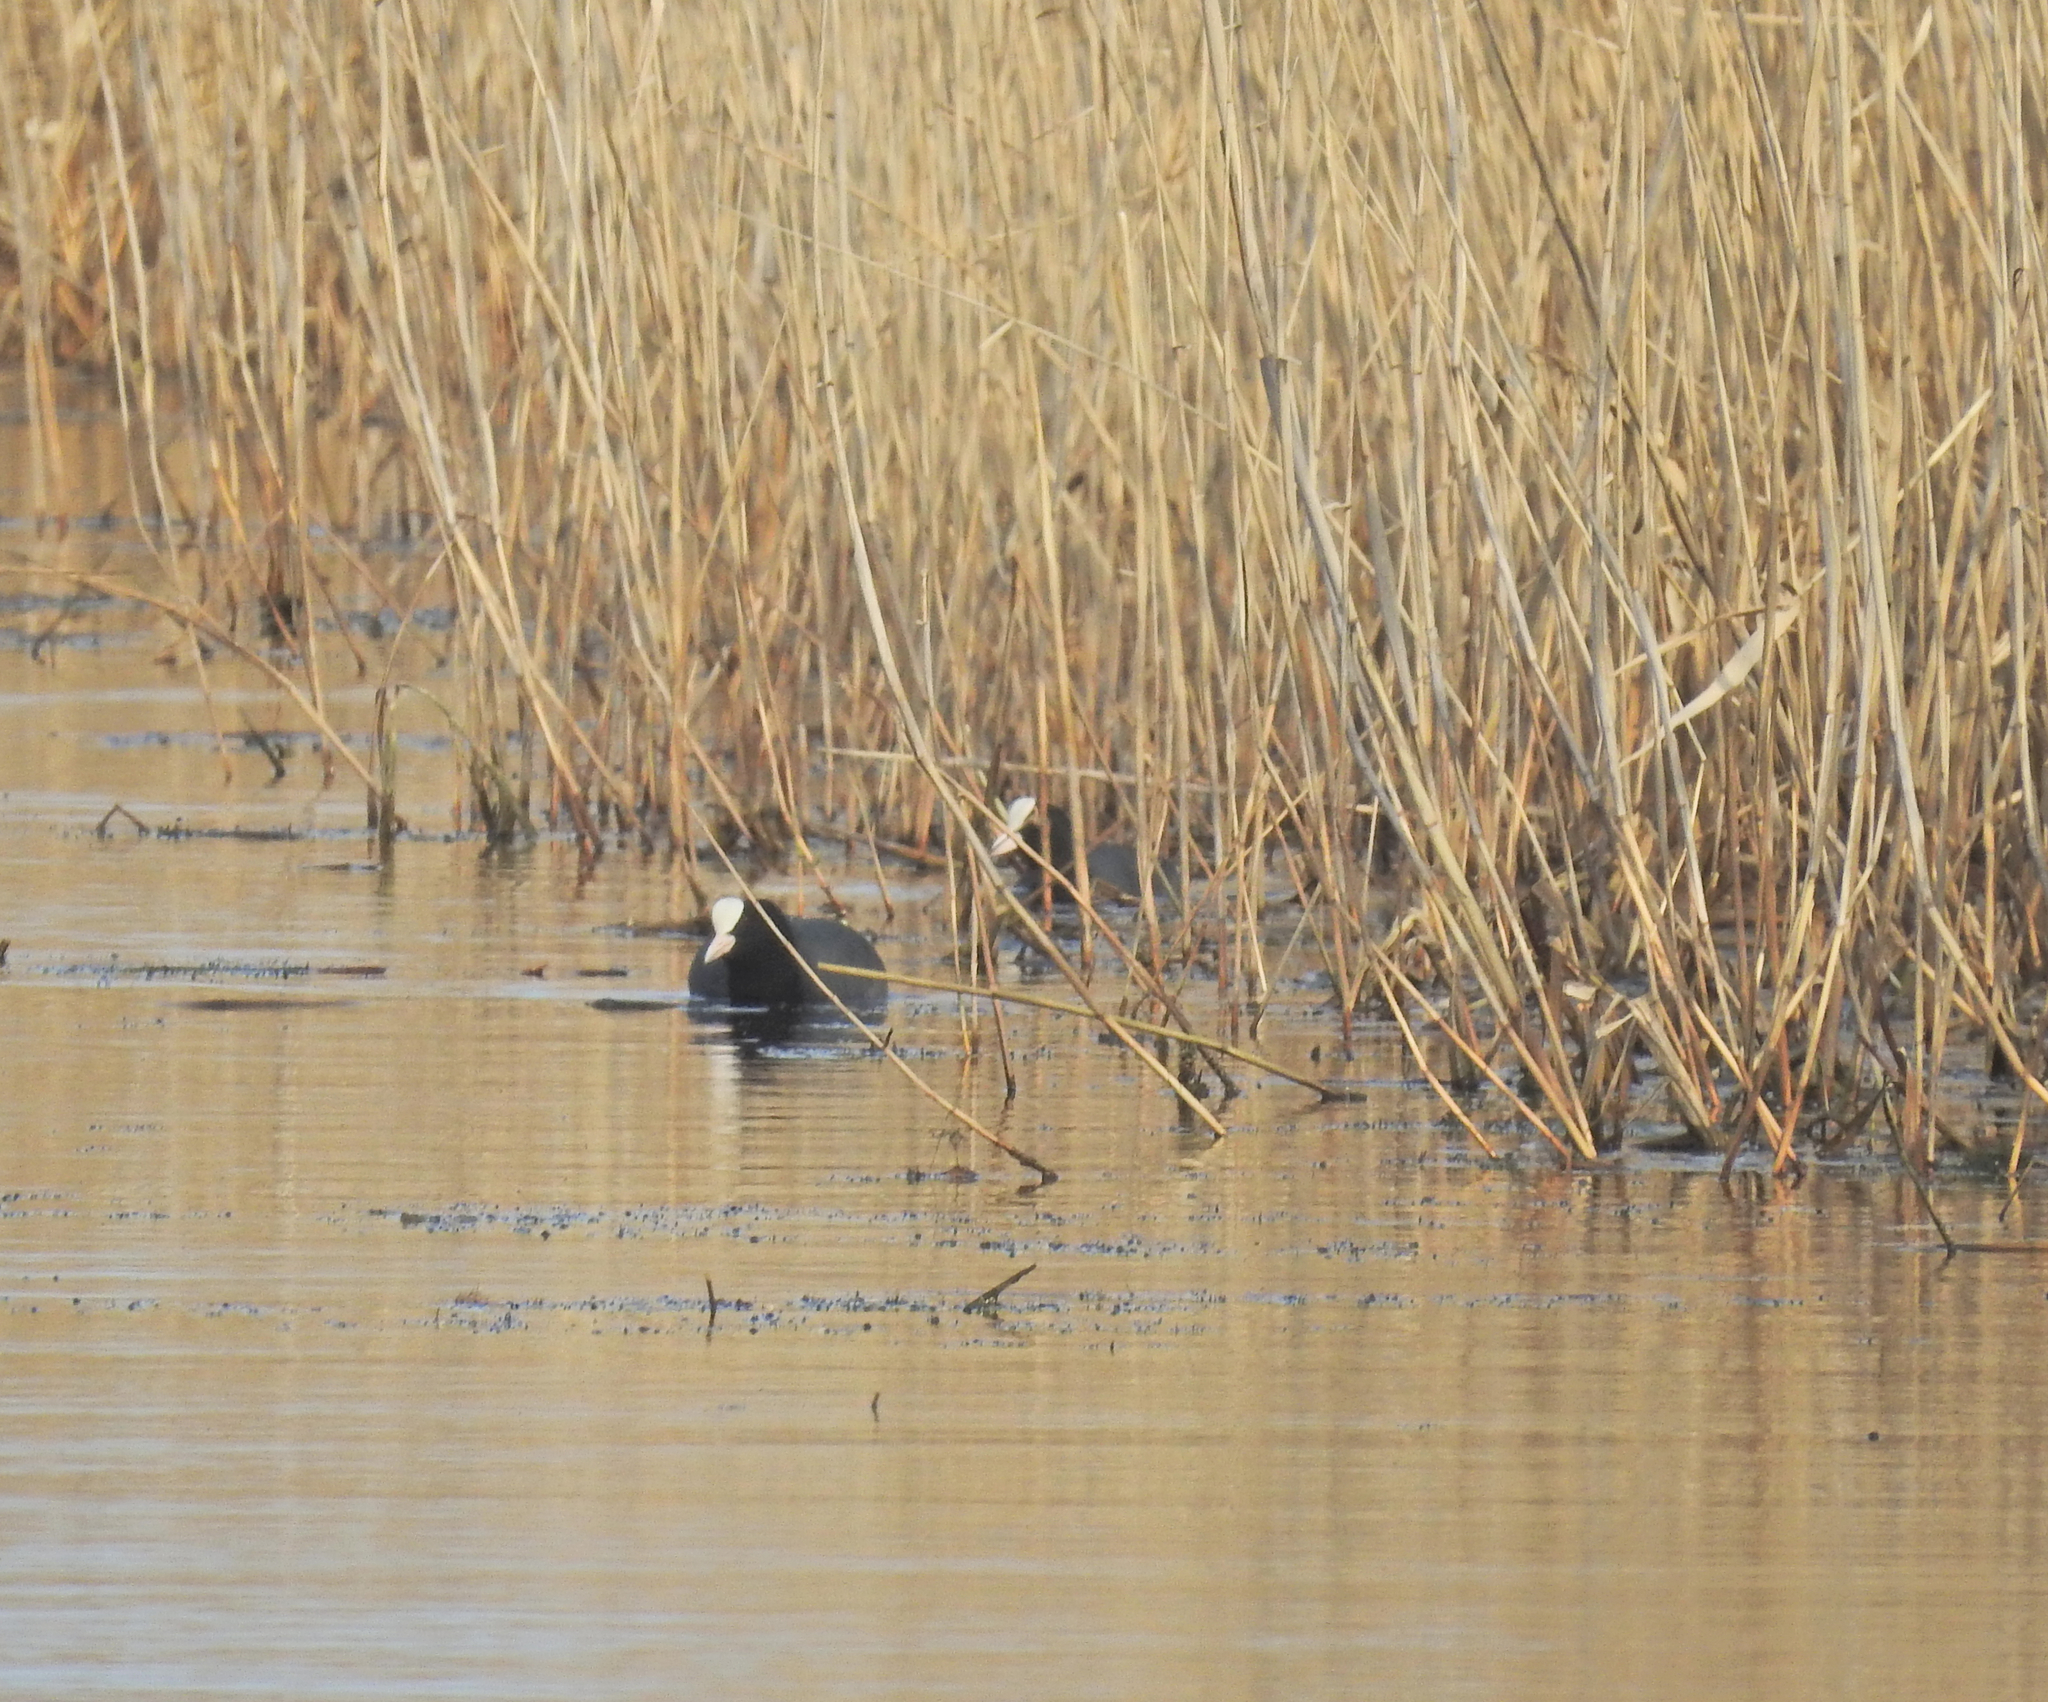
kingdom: Animalia
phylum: Chordata
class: Aves
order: Gruiformes
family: Rallidae
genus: Fulica
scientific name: Fulica atra
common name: Eurasian coot
